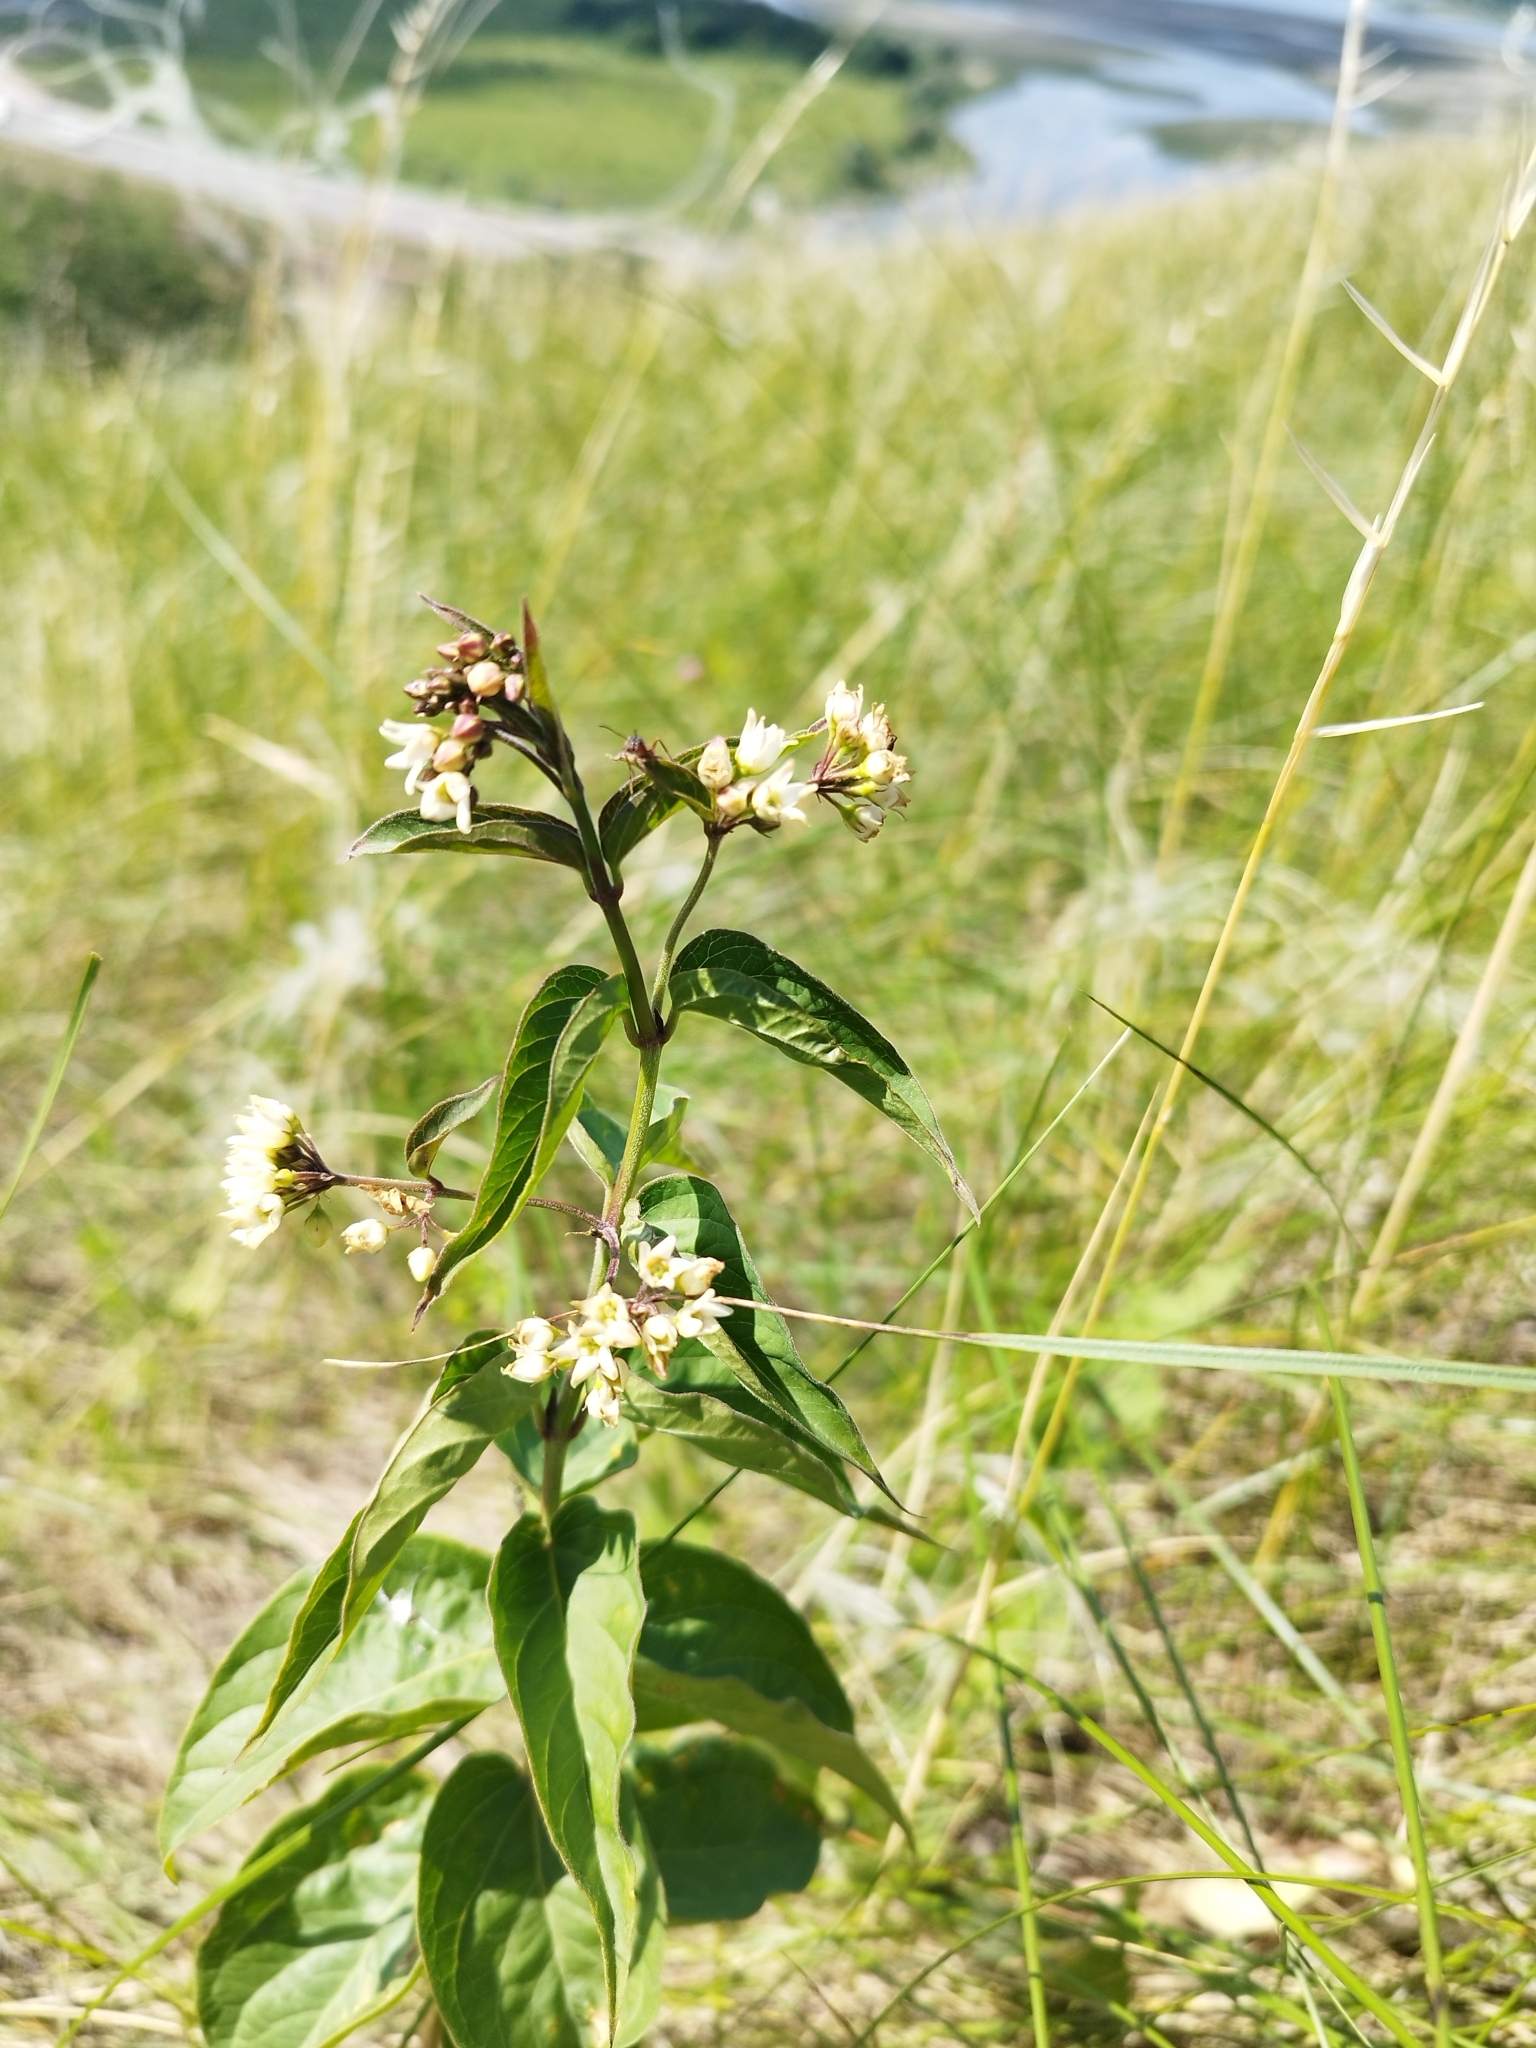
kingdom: Plantae
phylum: Tracheophyta
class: Magnoliopsida
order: Gentianales
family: Apocynaceae
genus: Vincetoxicum
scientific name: Vincetoxicum hirundinaria
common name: White swallowwort
